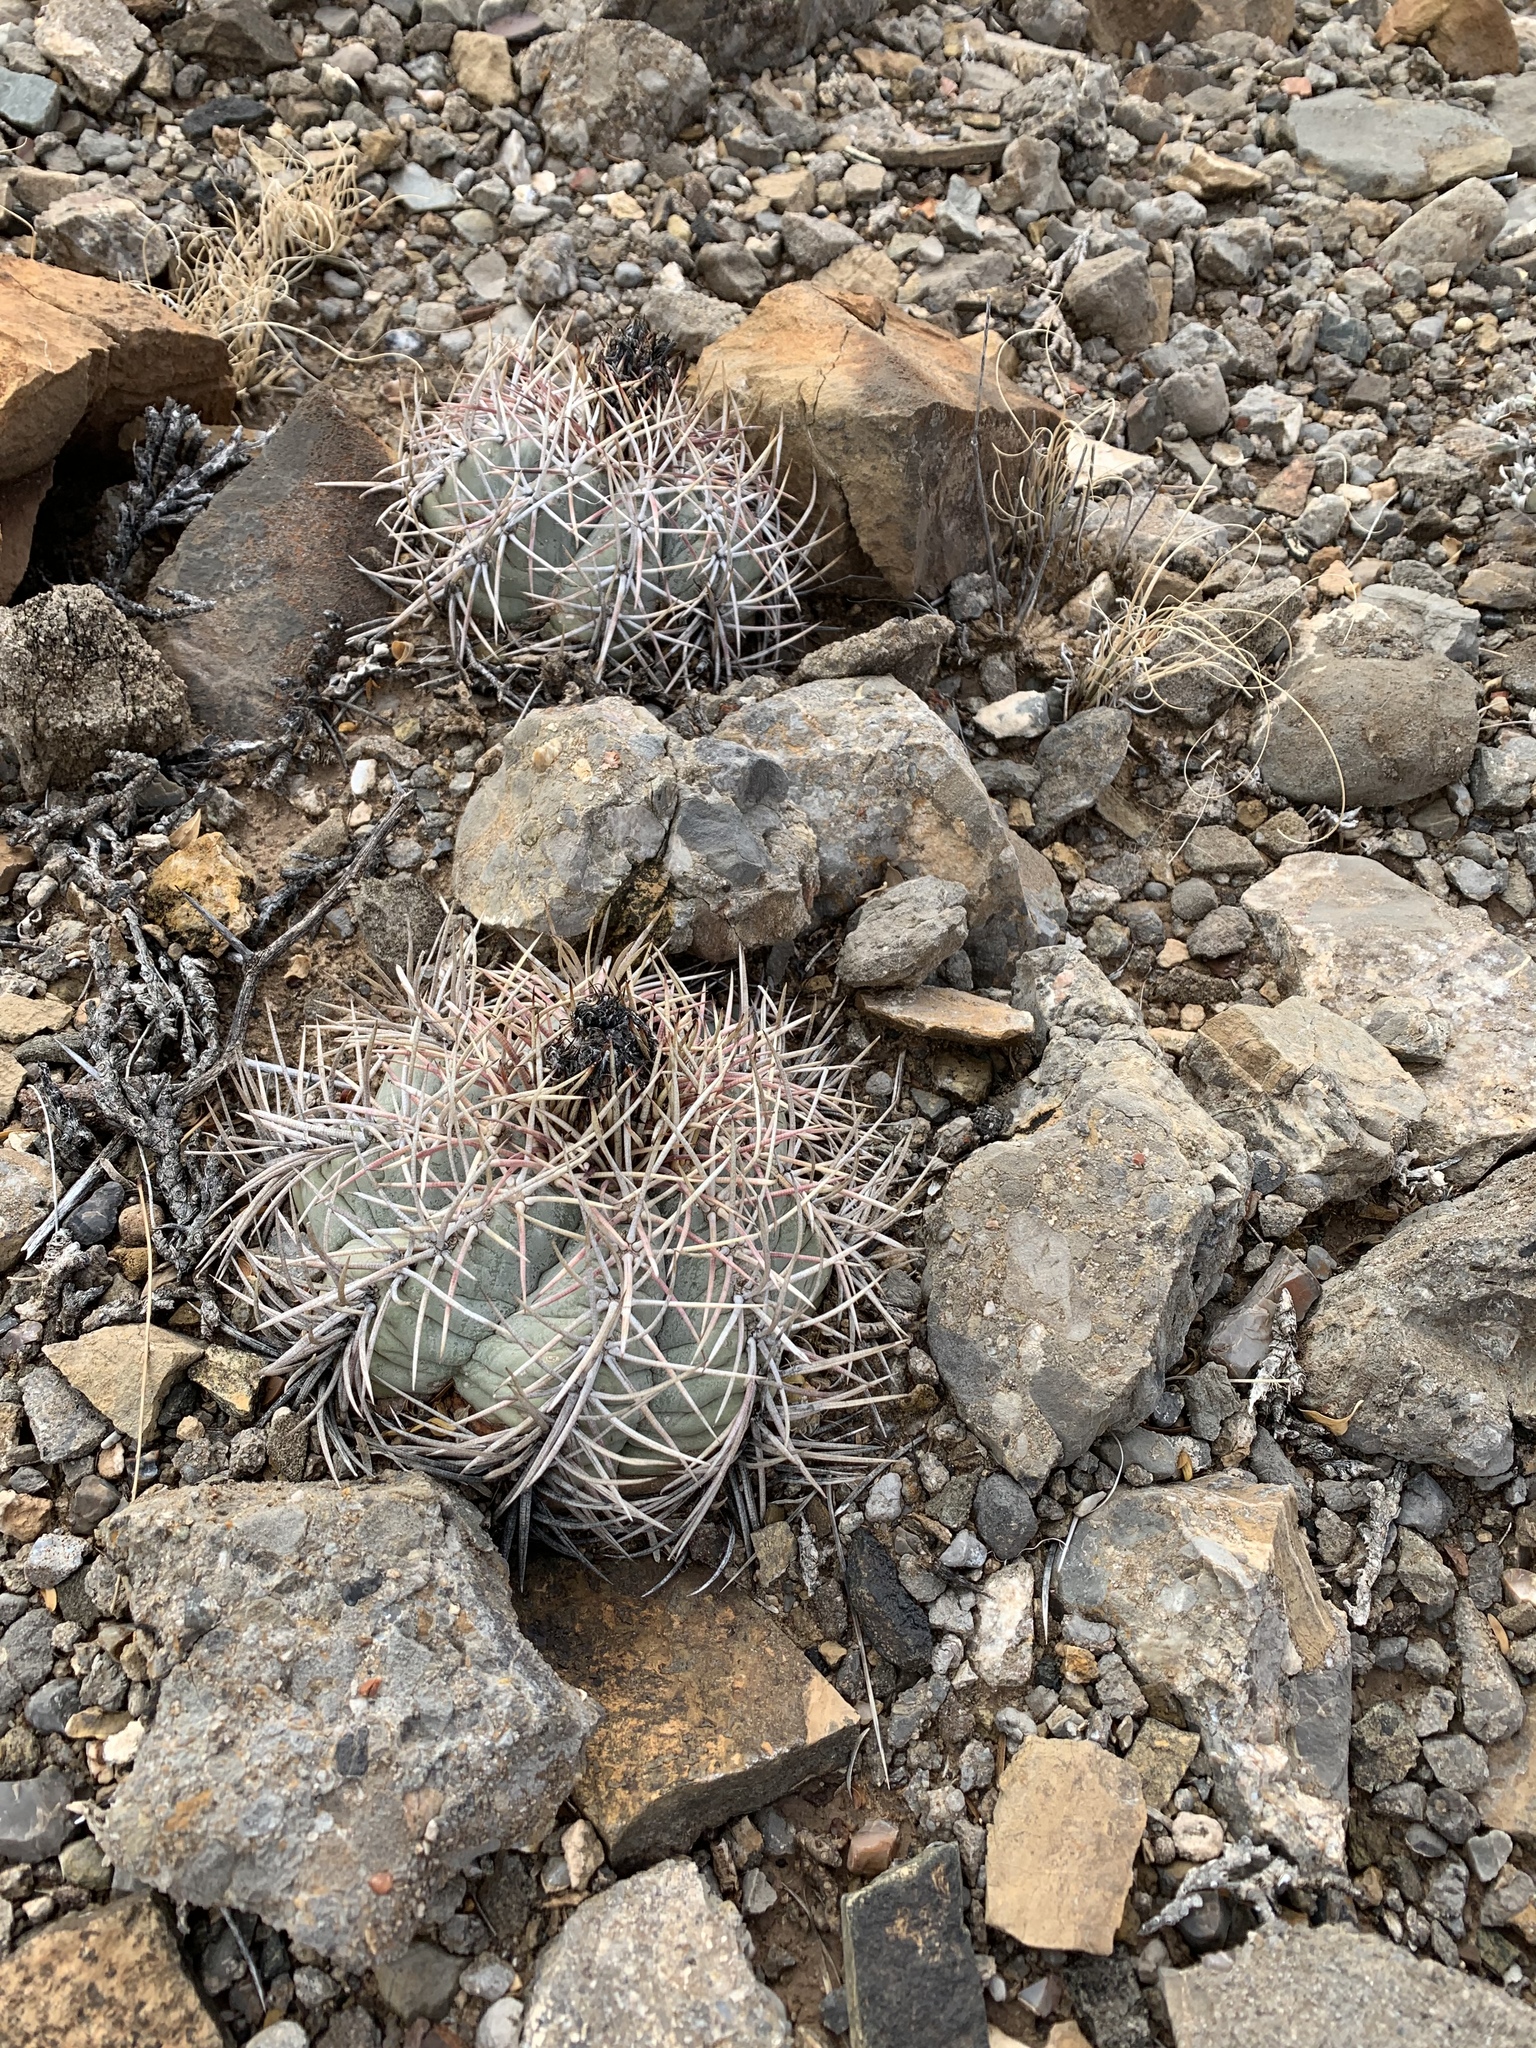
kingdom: Plantae
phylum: Tracheophyta
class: Magnoliopsida
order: Caryophyllales
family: Cactaceae
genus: Echinocactus
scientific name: Echinocactus horizonthalonius
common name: Devilshead
